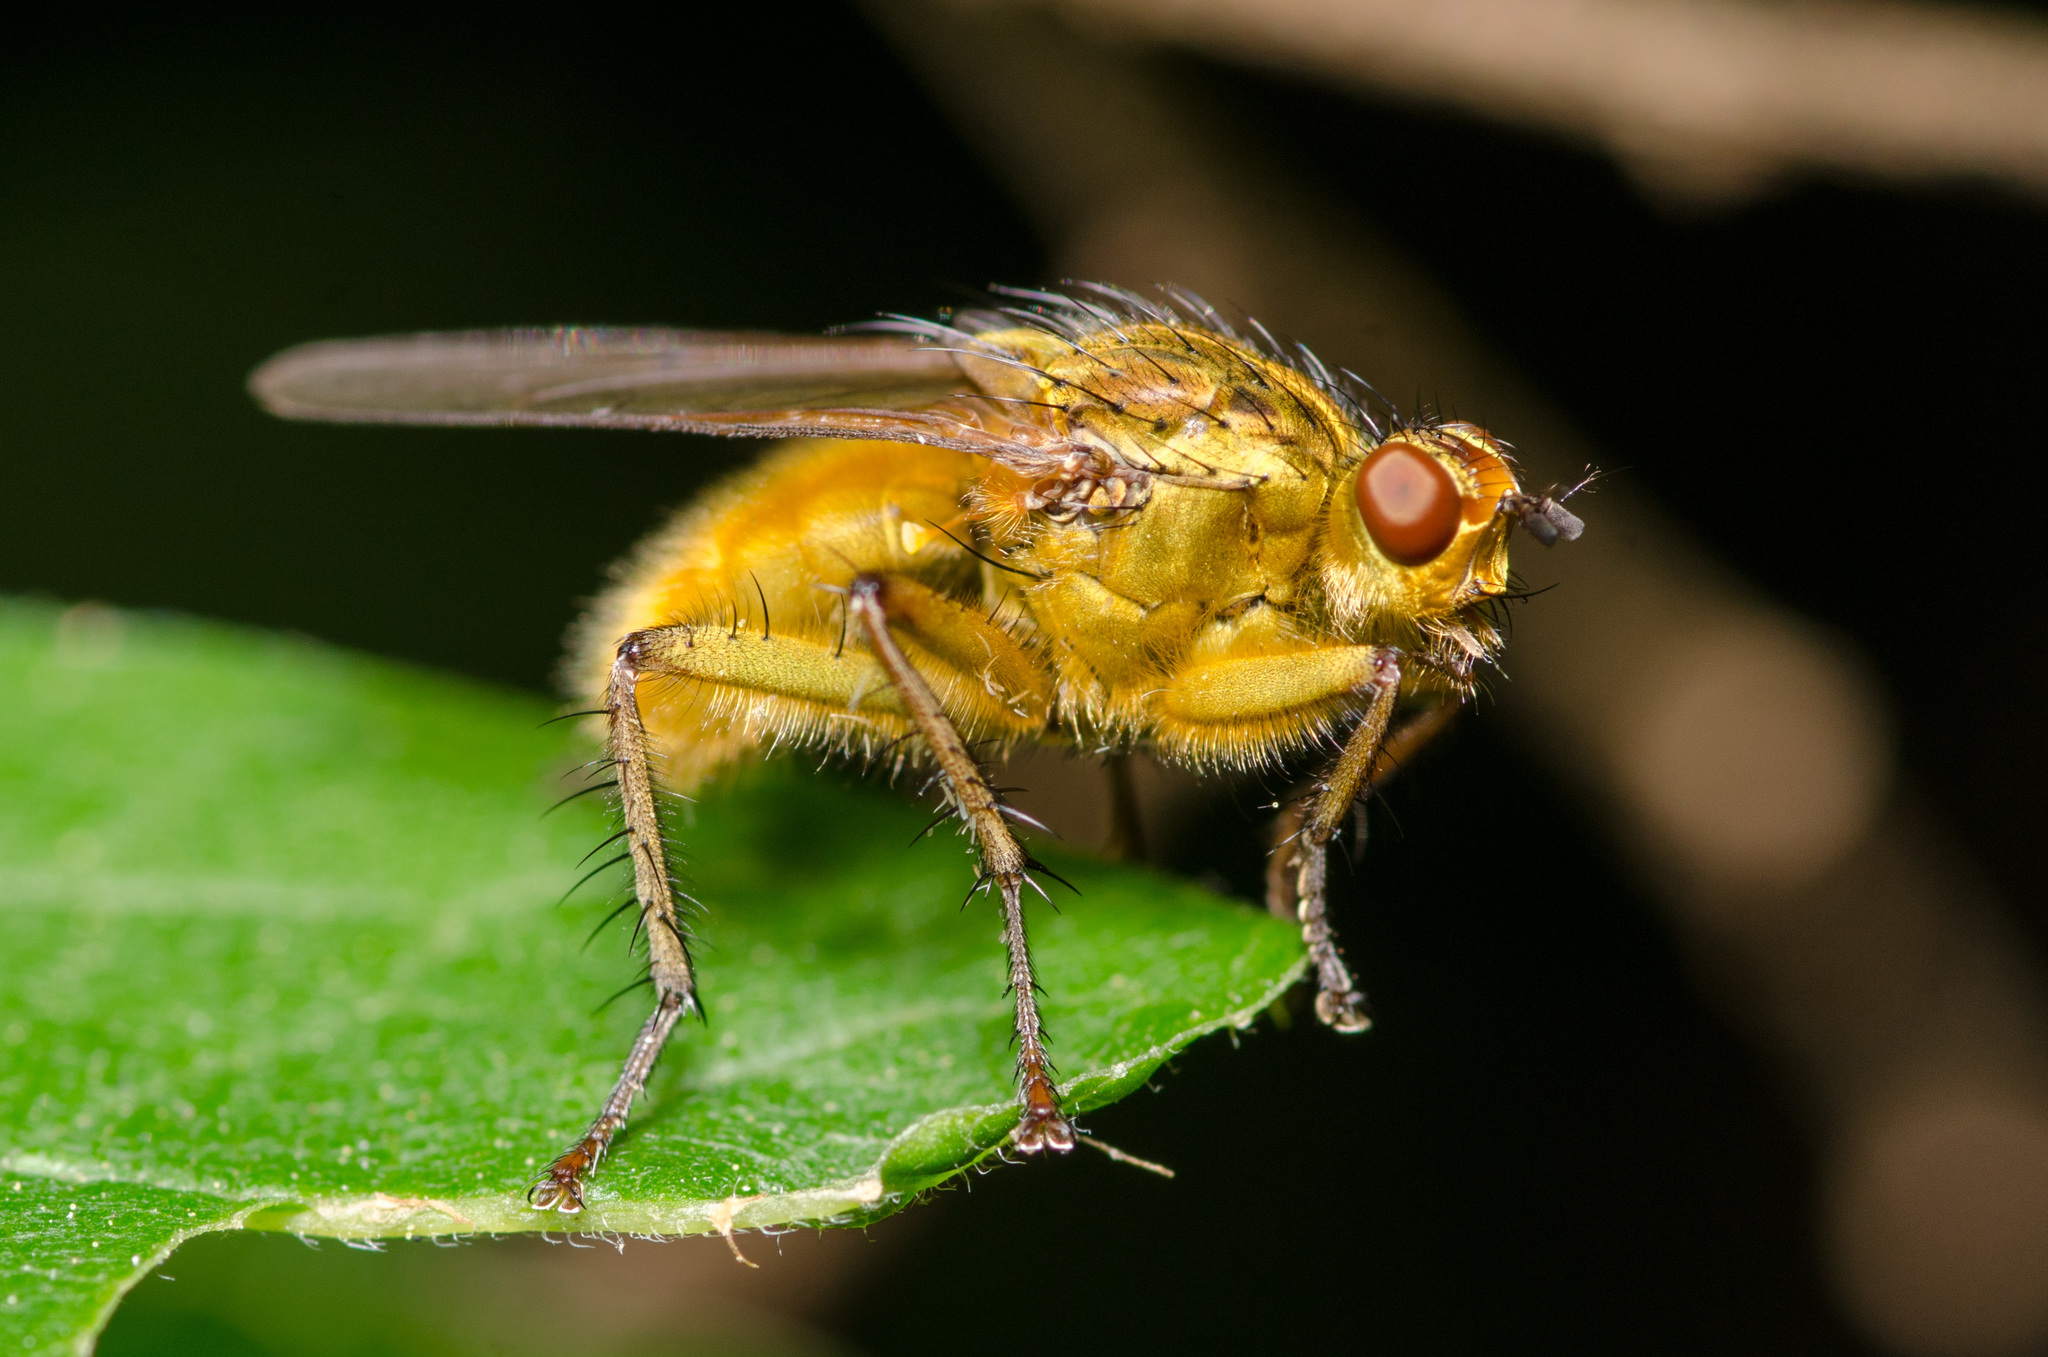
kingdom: Animalia
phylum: Arthropoda
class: Insecta
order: Diptera
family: Scathophagidae
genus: Scathophaga
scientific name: Scathophaga stercoraria
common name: Yellow dung fly
